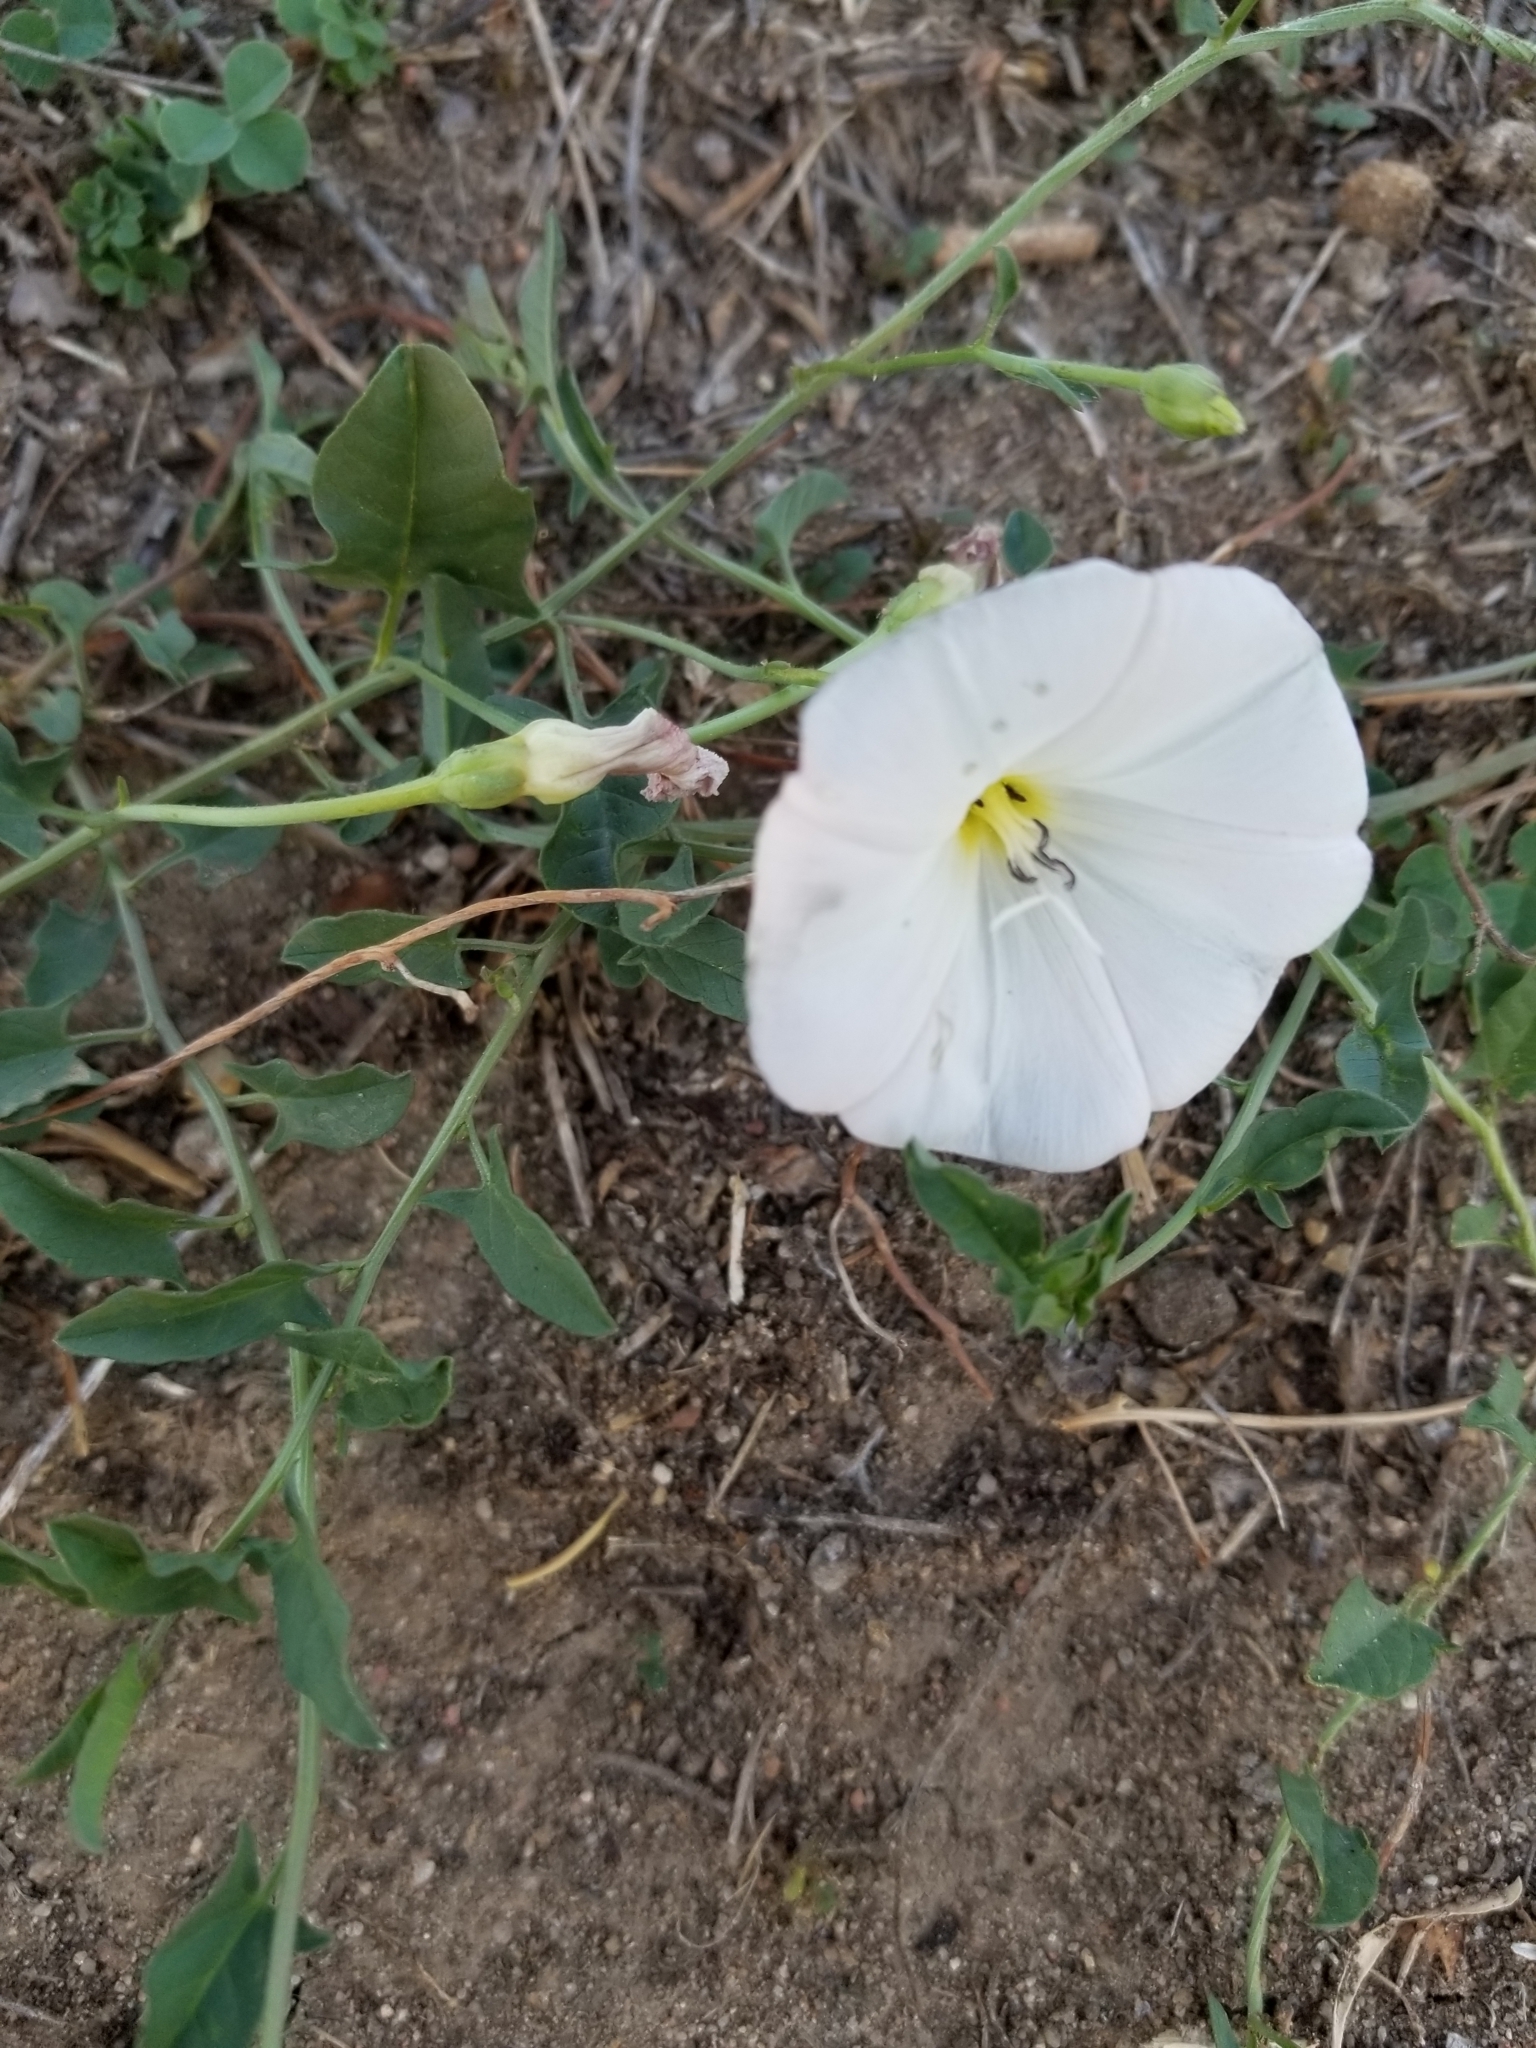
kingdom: Plantae
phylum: Tracheophyta
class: Magnoliopsida
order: Solanales
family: Convolvulaceae
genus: Convolvulus
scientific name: Convolvulus arvensis
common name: Field bindweed
